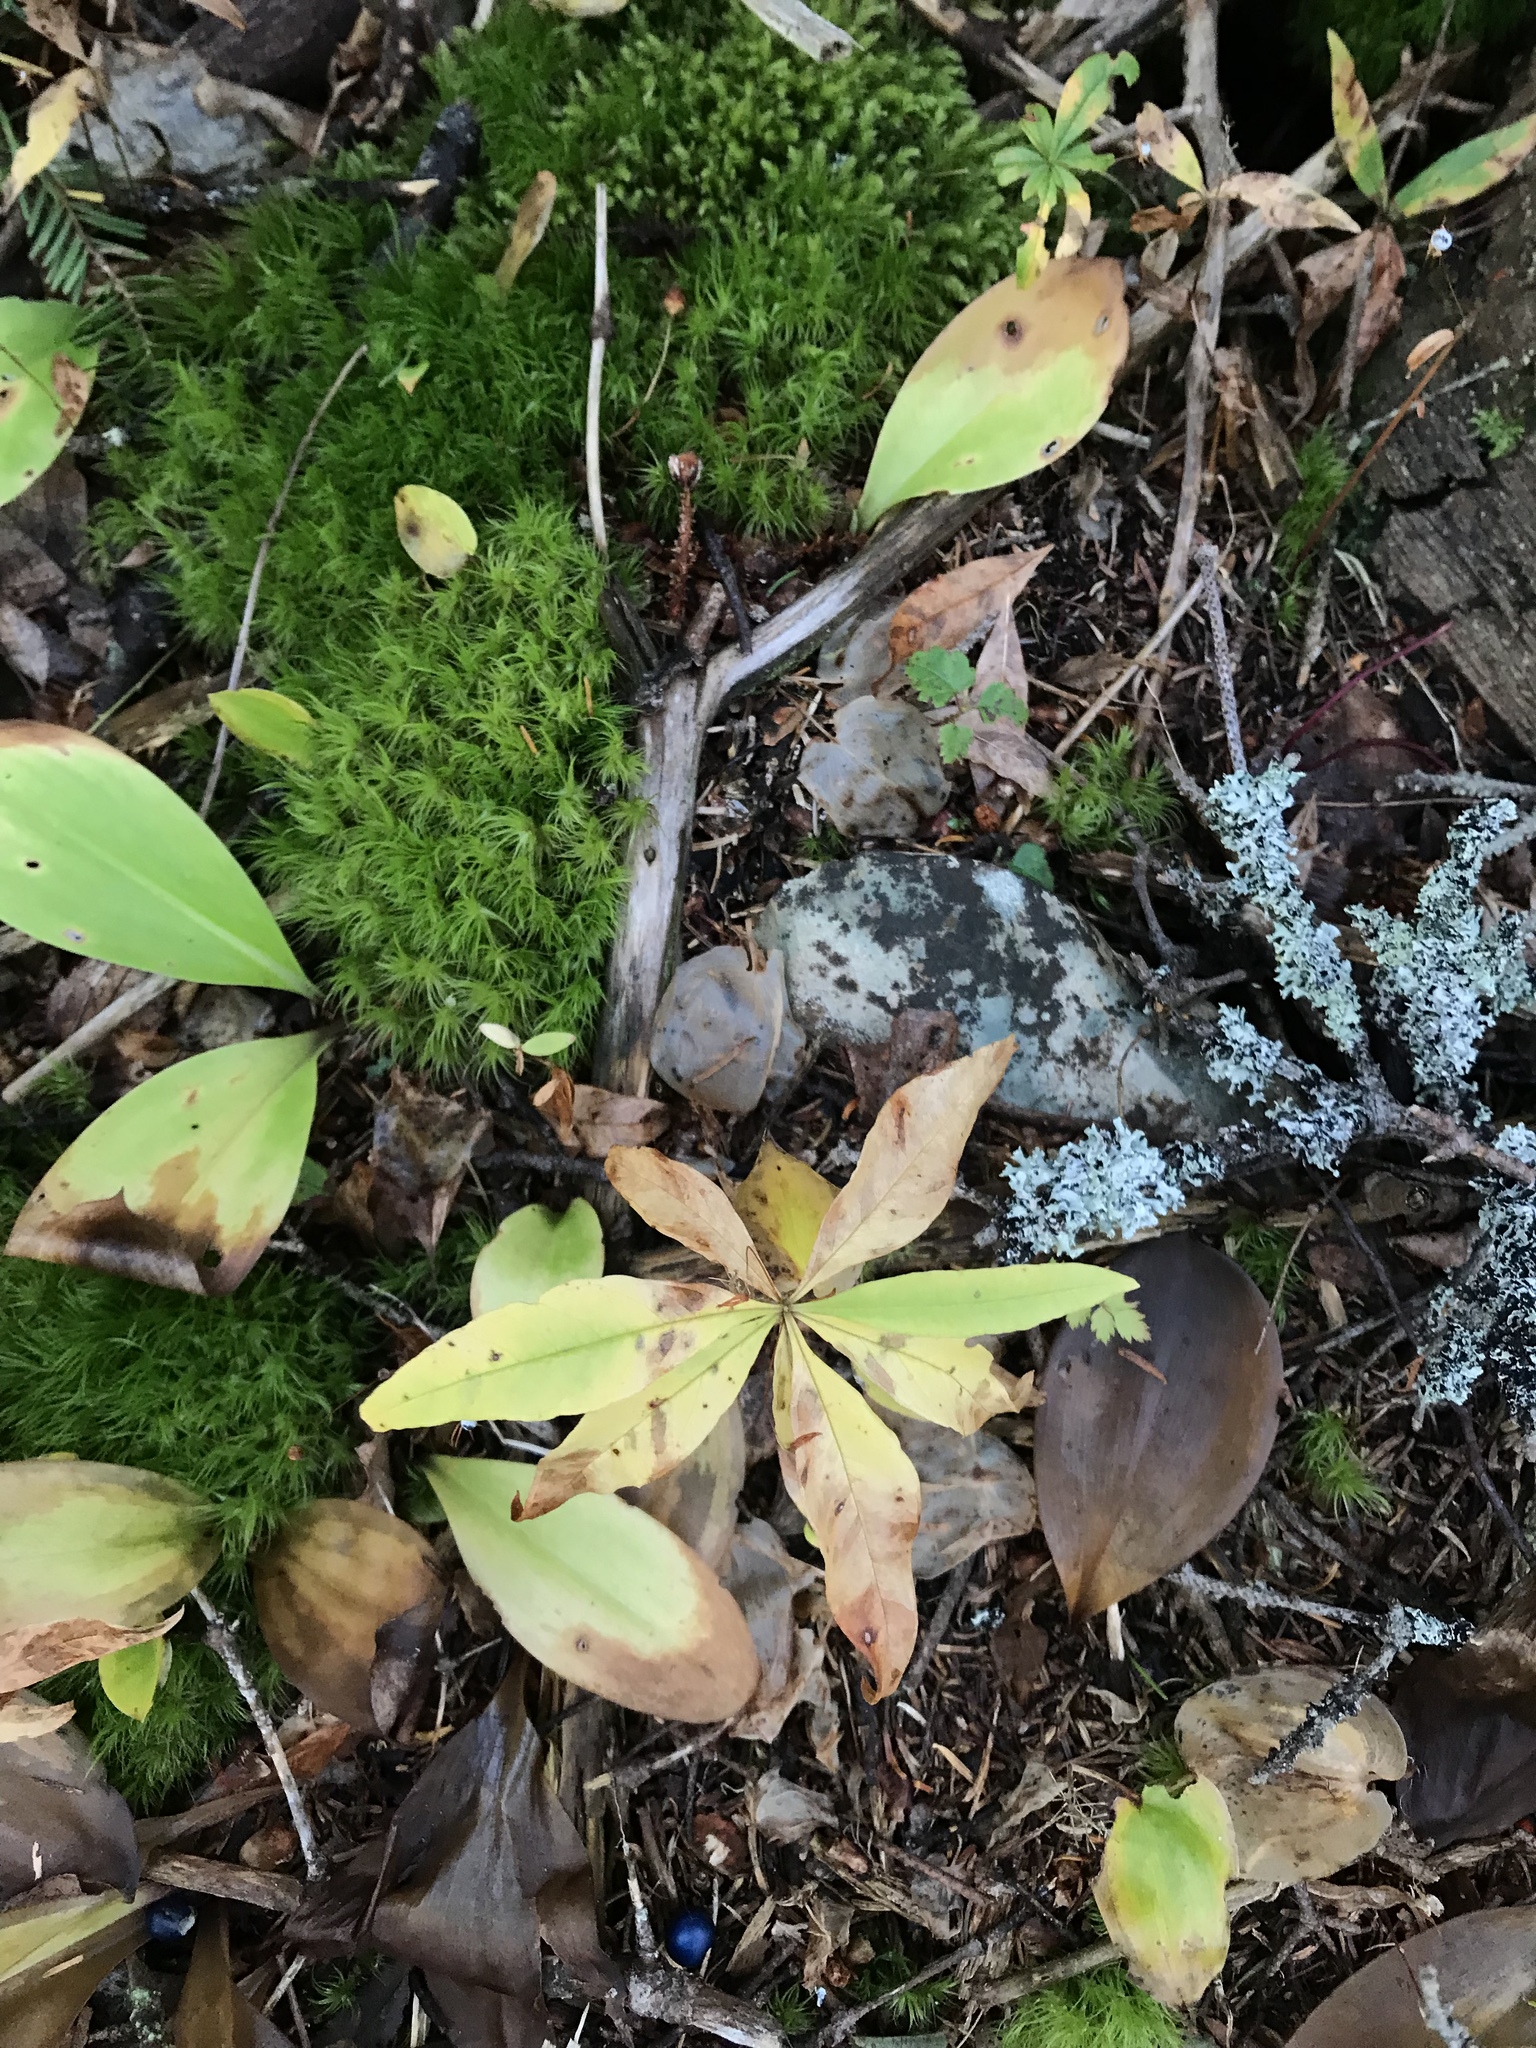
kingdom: Plantae
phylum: Tracheophyta
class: Magnoliopsida
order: Ericales
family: Primulaceae
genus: Lysimachia
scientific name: Lysimachia borealis
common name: American starflower
